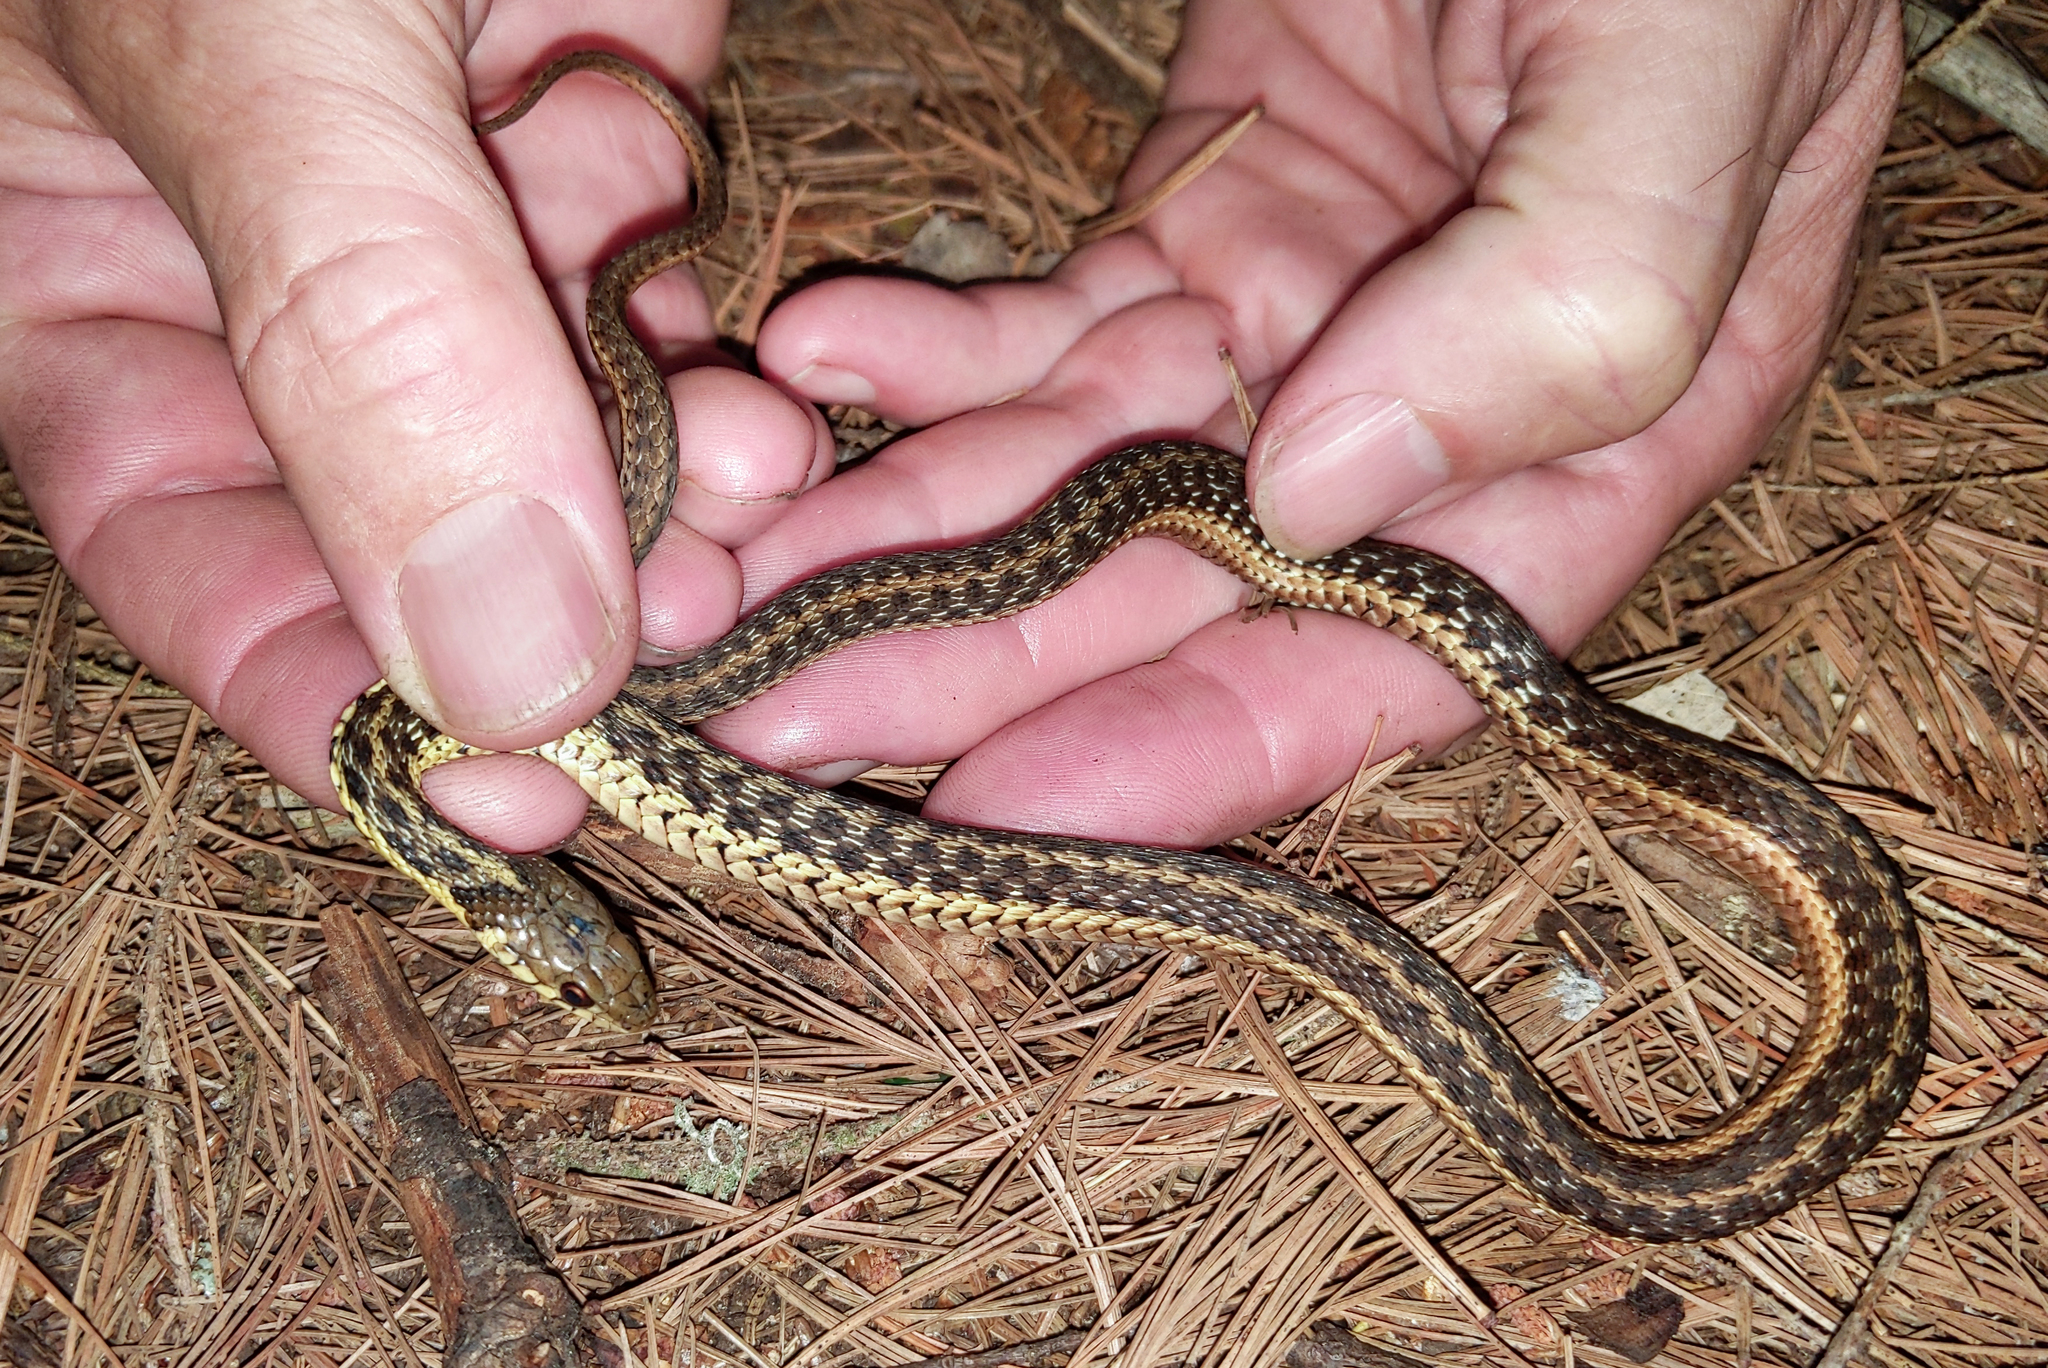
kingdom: Animalia
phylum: Chordata
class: Squamata
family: Colubridae
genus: Thamnophis
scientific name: Thamnophis sirtalis
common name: Common garter snake
